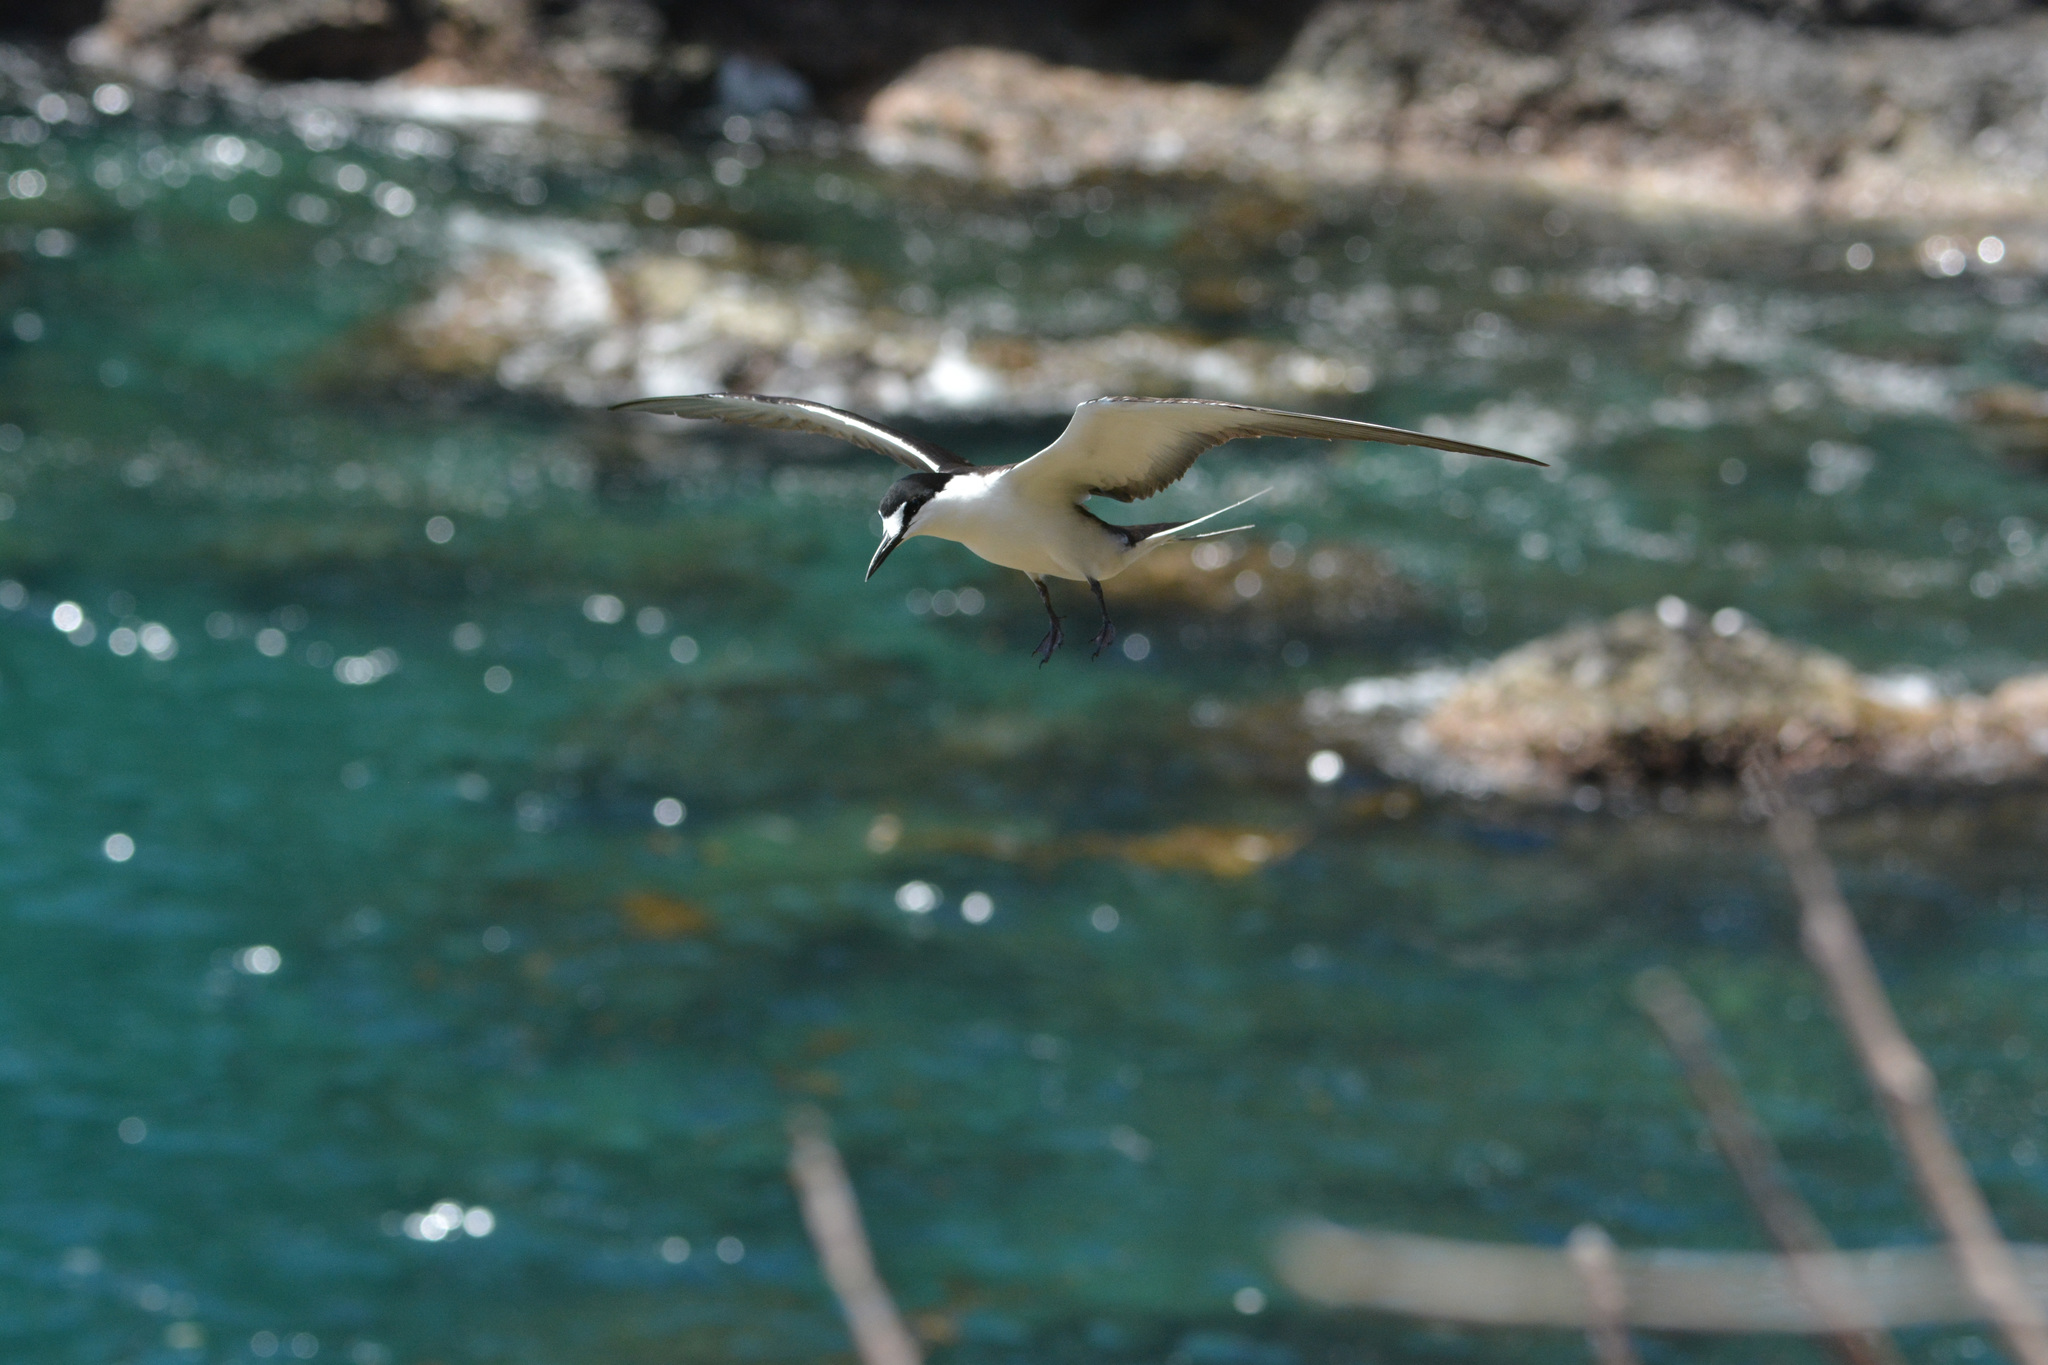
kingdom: Animalia
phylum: Chordata
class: Aves
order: Charadriiformes
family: Laridae
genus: Onychoprion
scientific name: Onychoprion fuscatus
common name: Sooty tern
